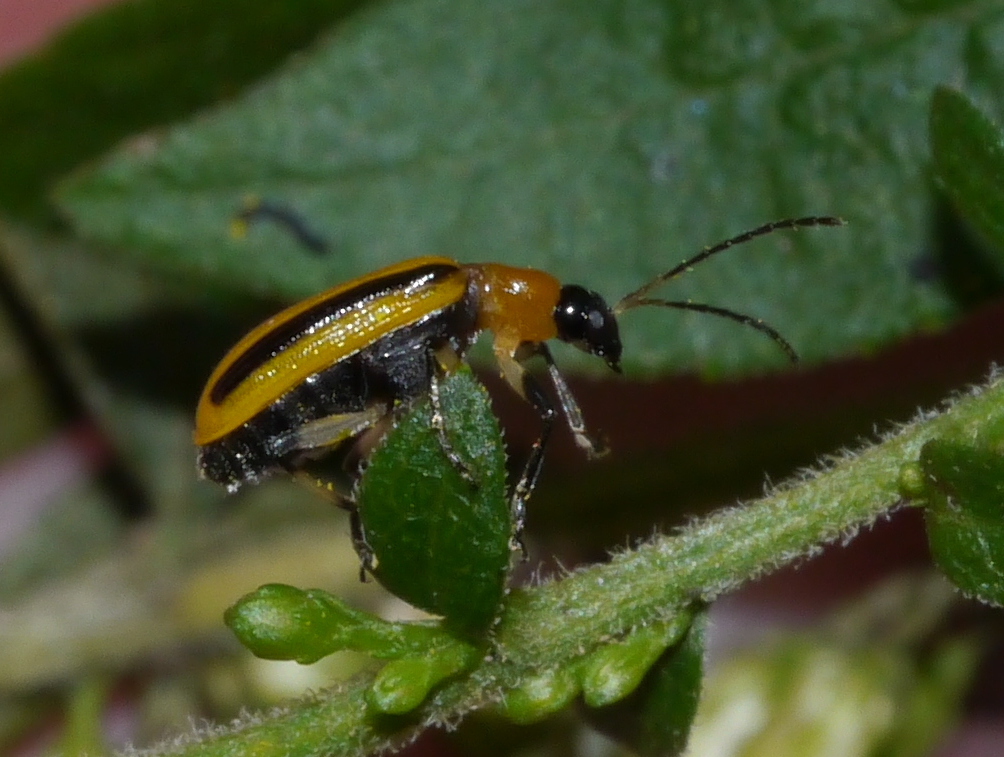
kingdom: Animalia
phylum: Arthropoda
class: Insecta
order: Coleoptera
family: Chrysomelidae
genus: Acalymma
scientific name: Acalymma vittatum
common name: Striped cucumber beetle
